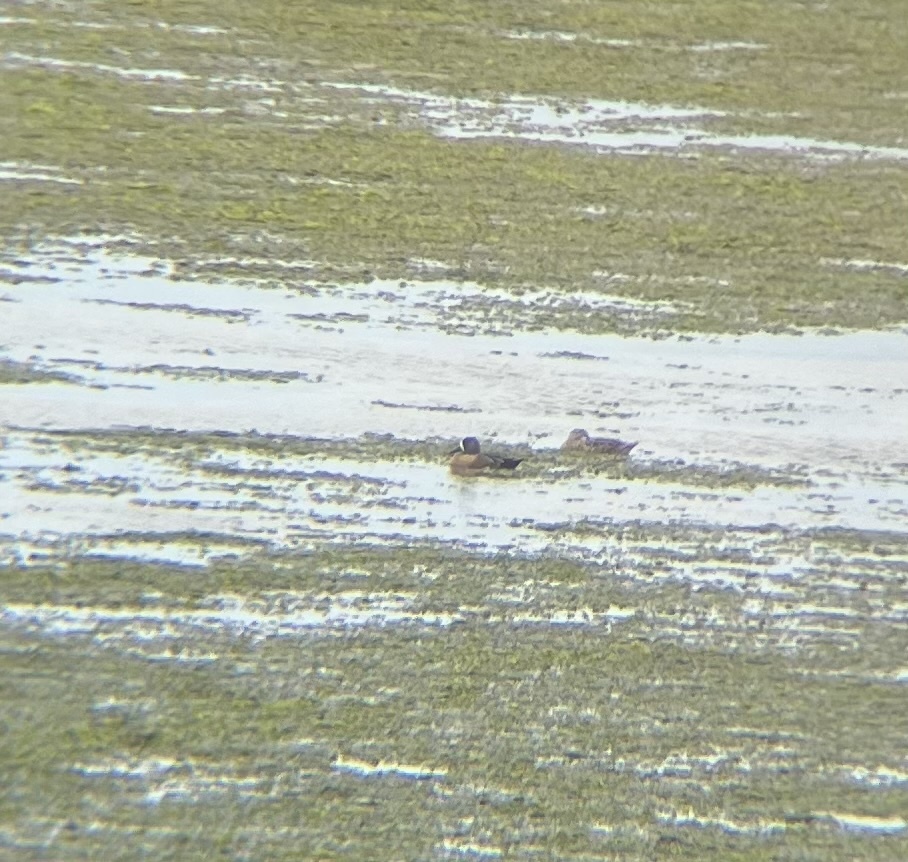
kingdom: Animalia
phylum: Chordata
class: Aves
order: Anseriformes
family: Anatidae
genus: Spatula
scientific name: Spatula discors
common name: Blue-winged teal
